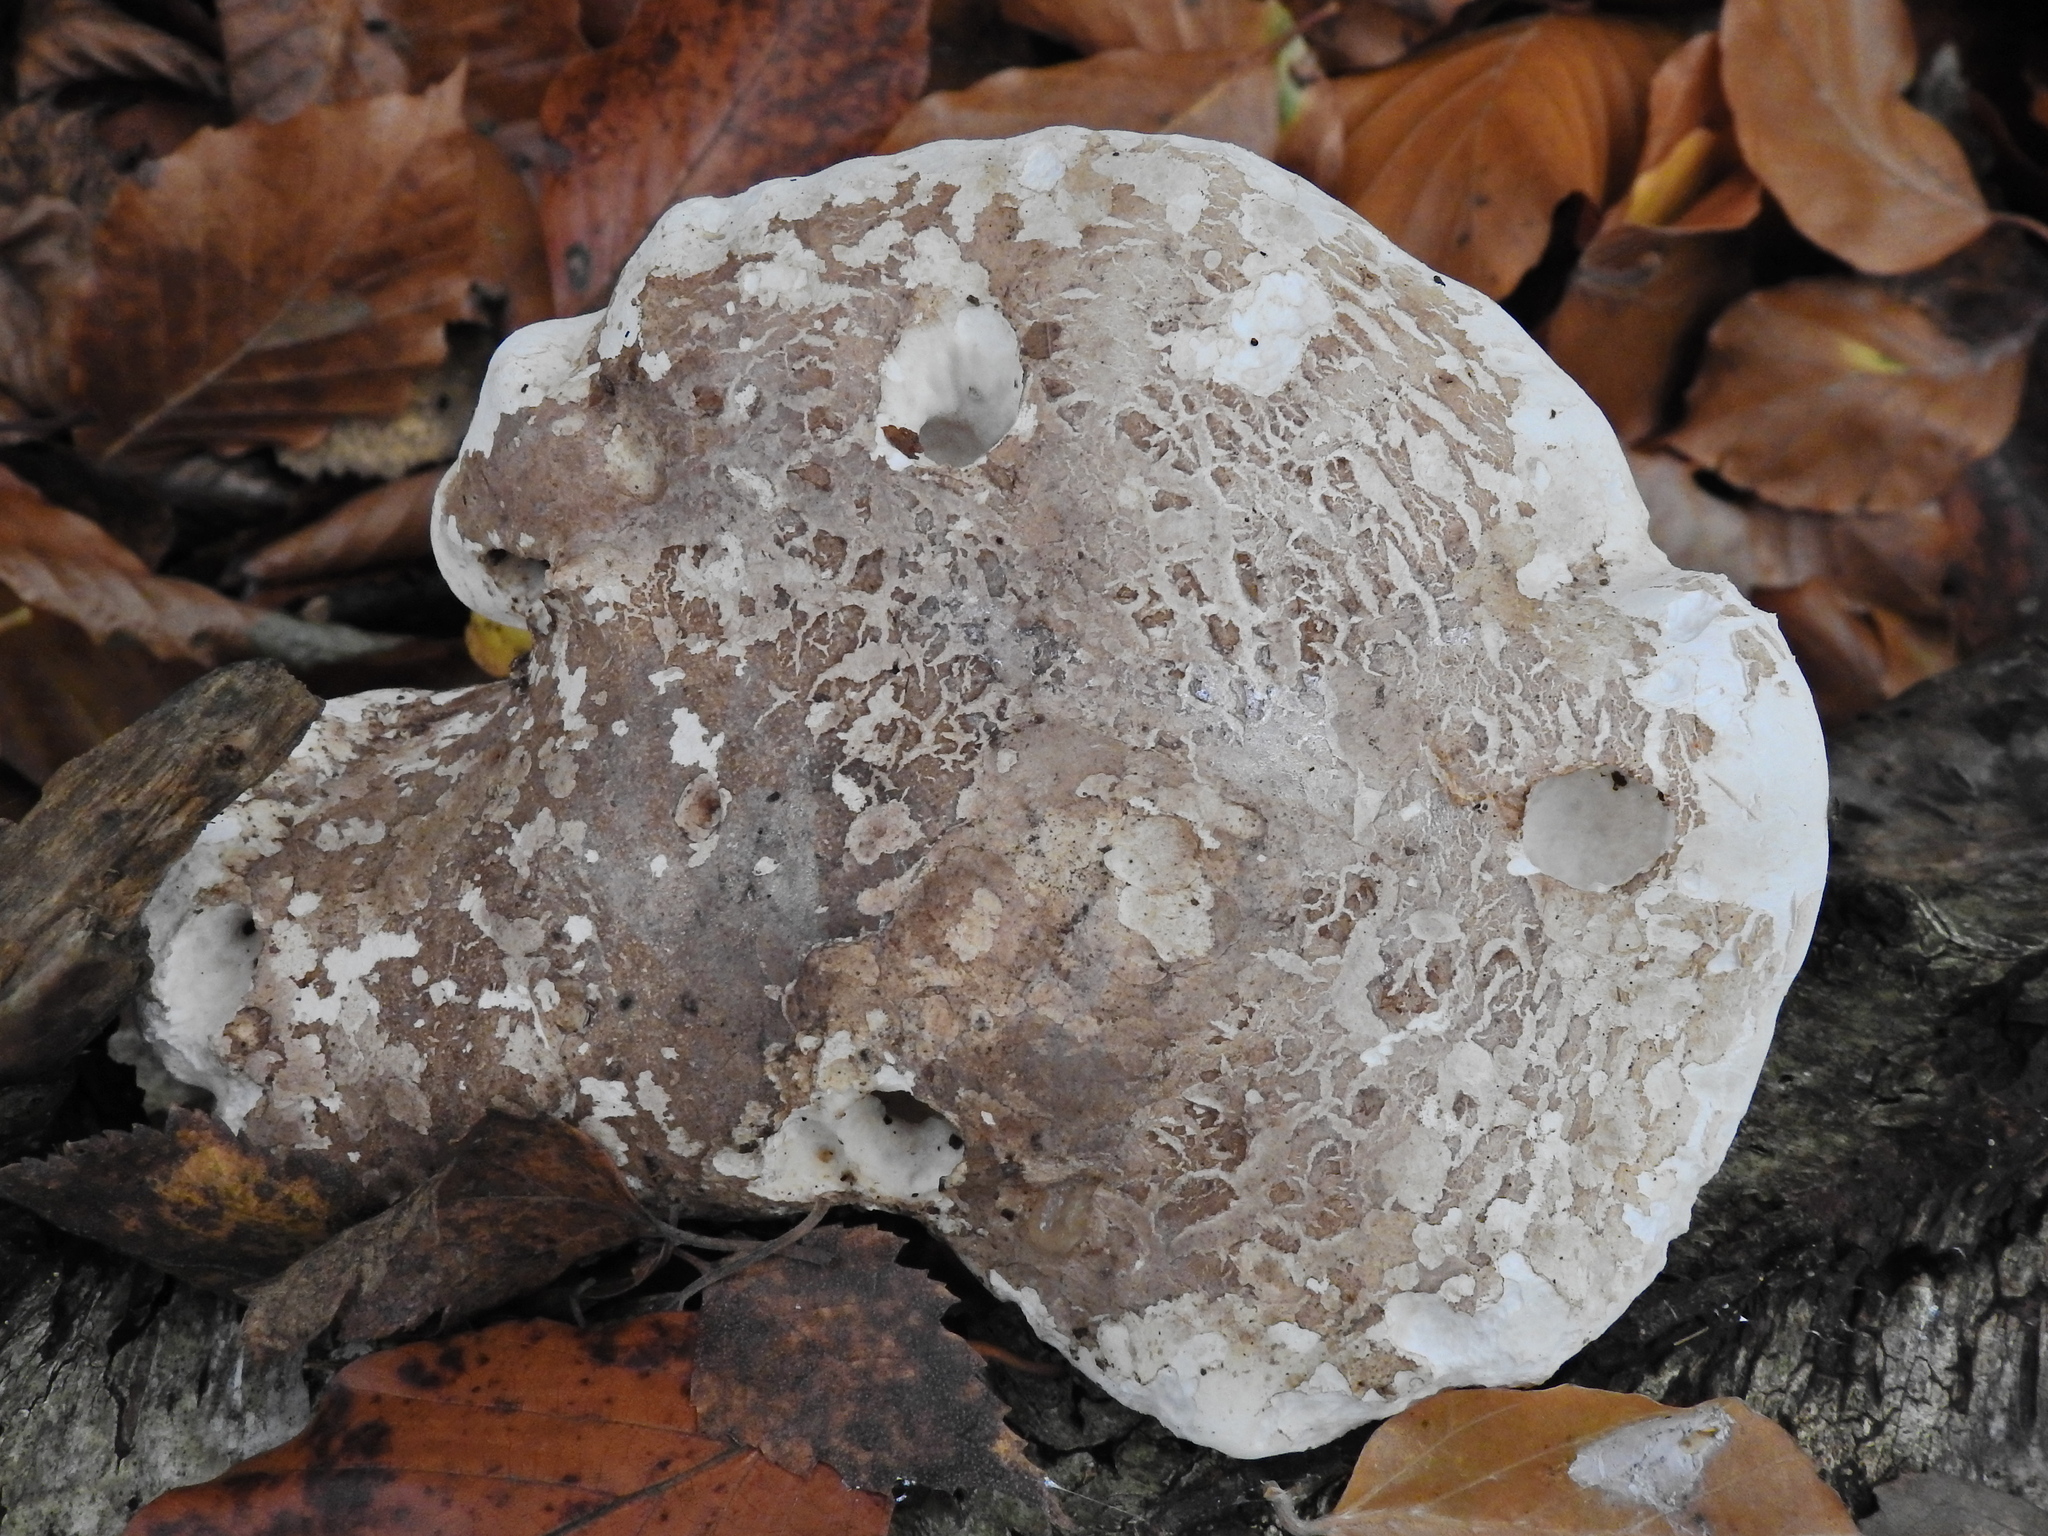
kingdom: Fungi
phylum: Basidiomycota
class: Agaricomycetes
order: Polyporales
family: Fomitopsidaceae
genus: Fomitopsis
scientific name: Fomitopsis betulina
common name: Birch polypore
